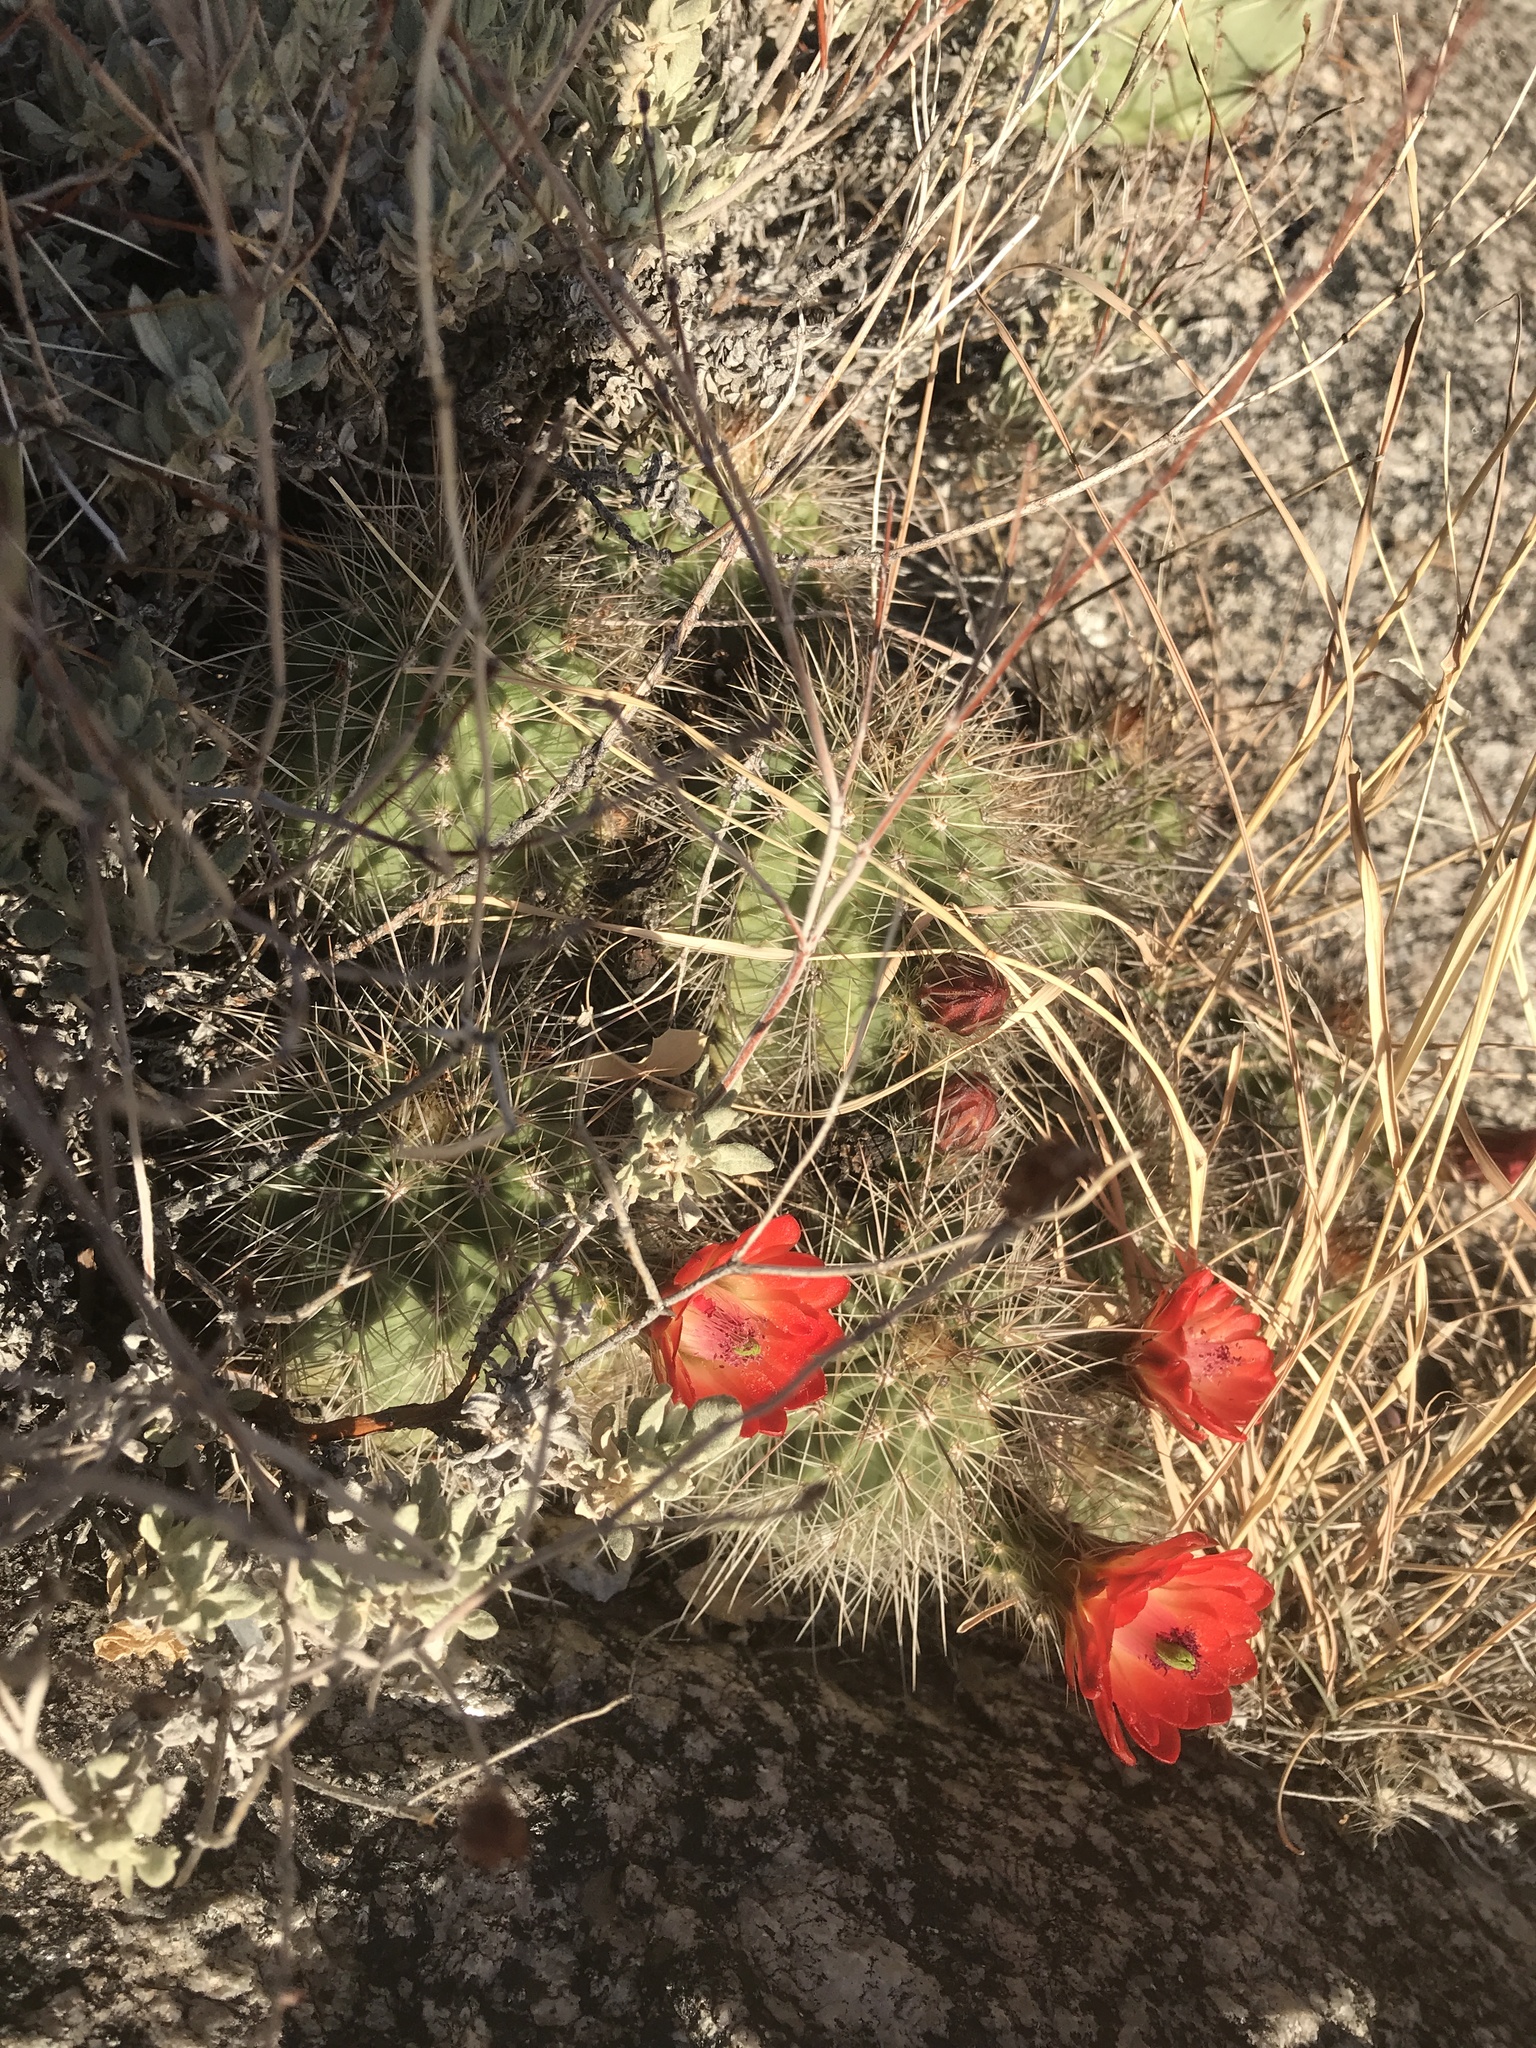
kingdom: Plantae
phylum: Tracheophyta
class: Magnoliopsida
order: Caryophyllales
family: Cactaceae
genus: Echinocereus
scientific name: Echinocereus coccineus
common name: Scarlet hedgehog cactus
